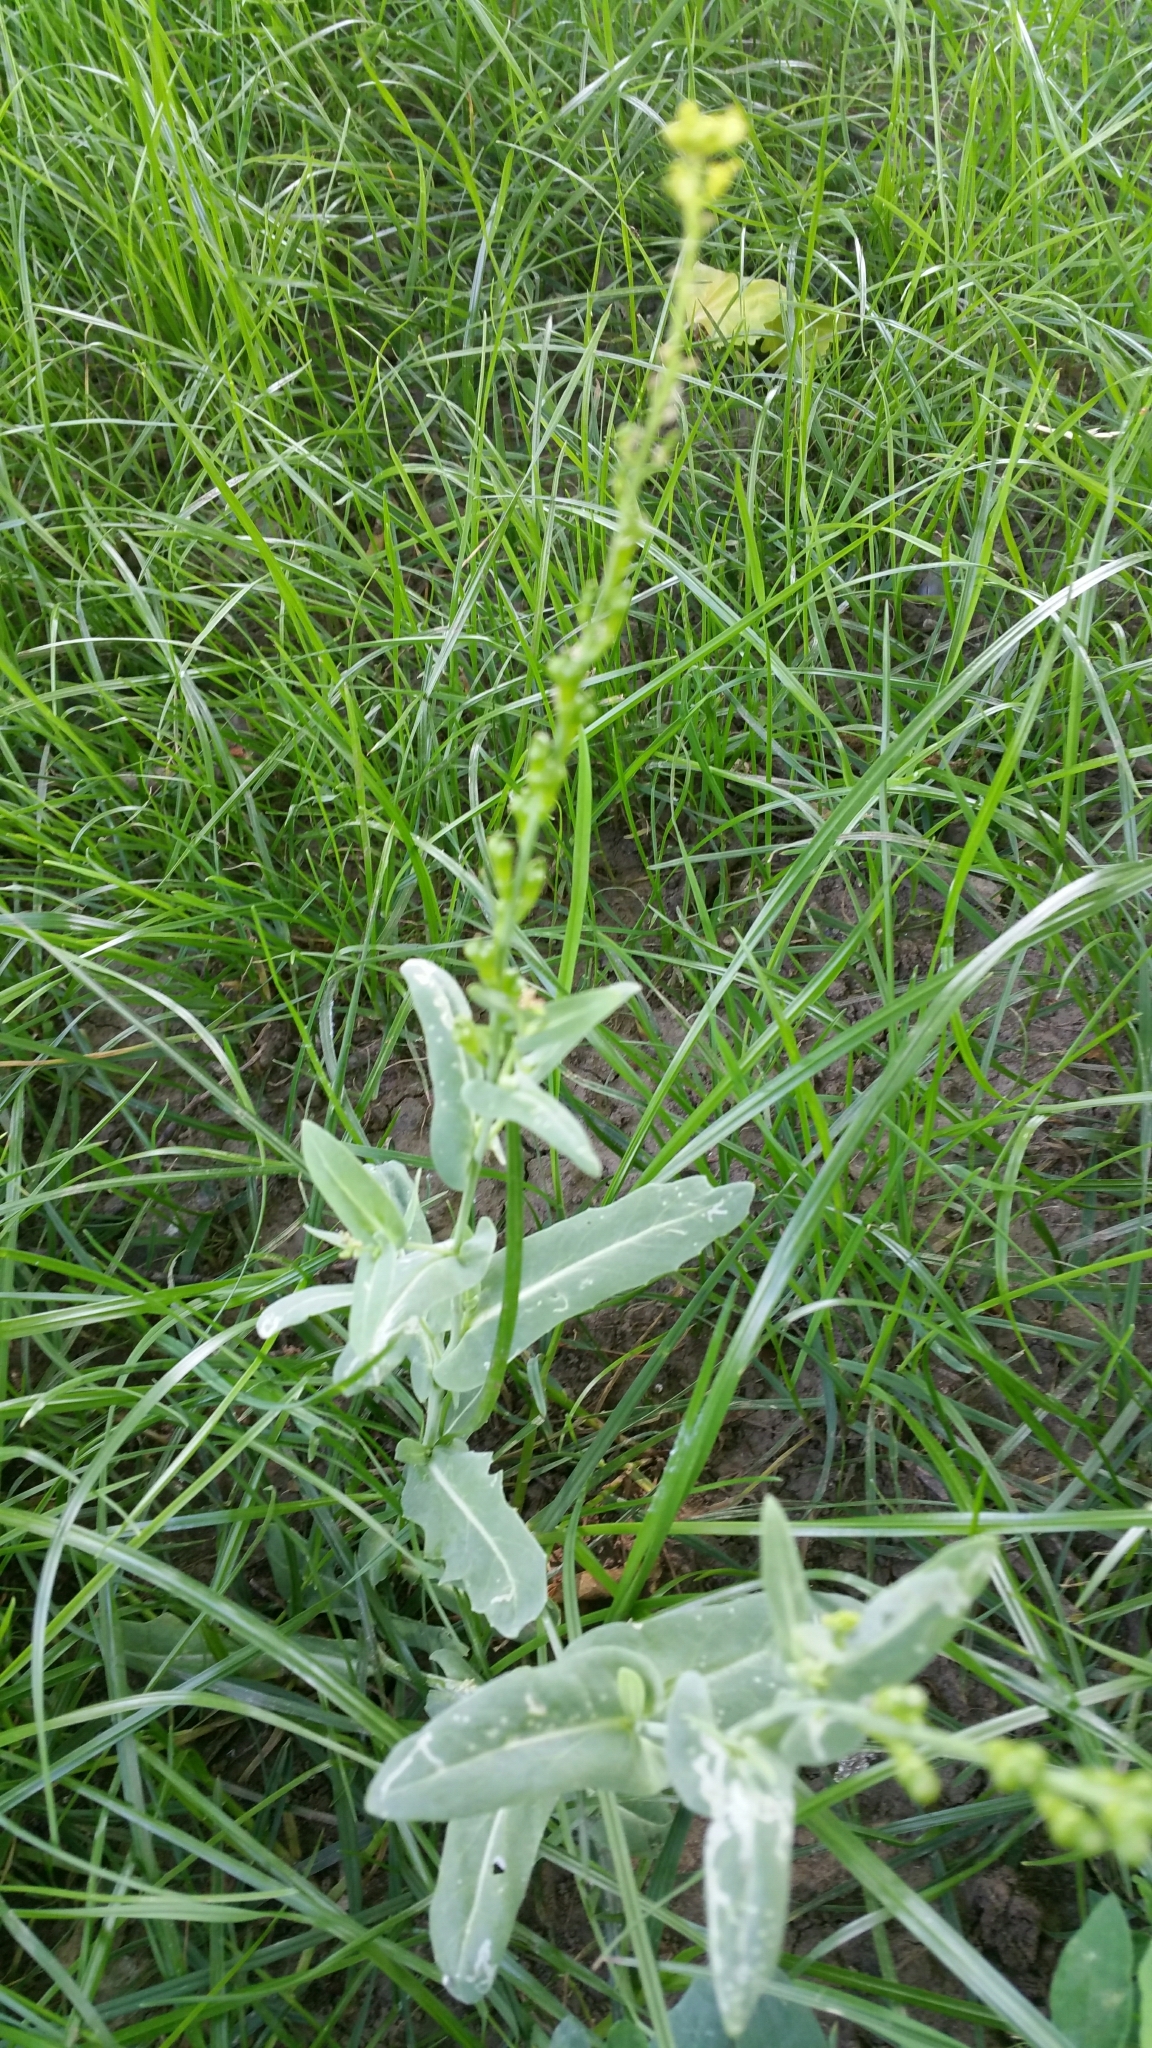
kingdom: Plantae
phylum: Tracheophyta
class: Magnoliopsida
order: Brassicales
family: Brassicaceae
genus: Myagrum
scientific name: Myagrum perfoliatum
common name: Mitre cress
